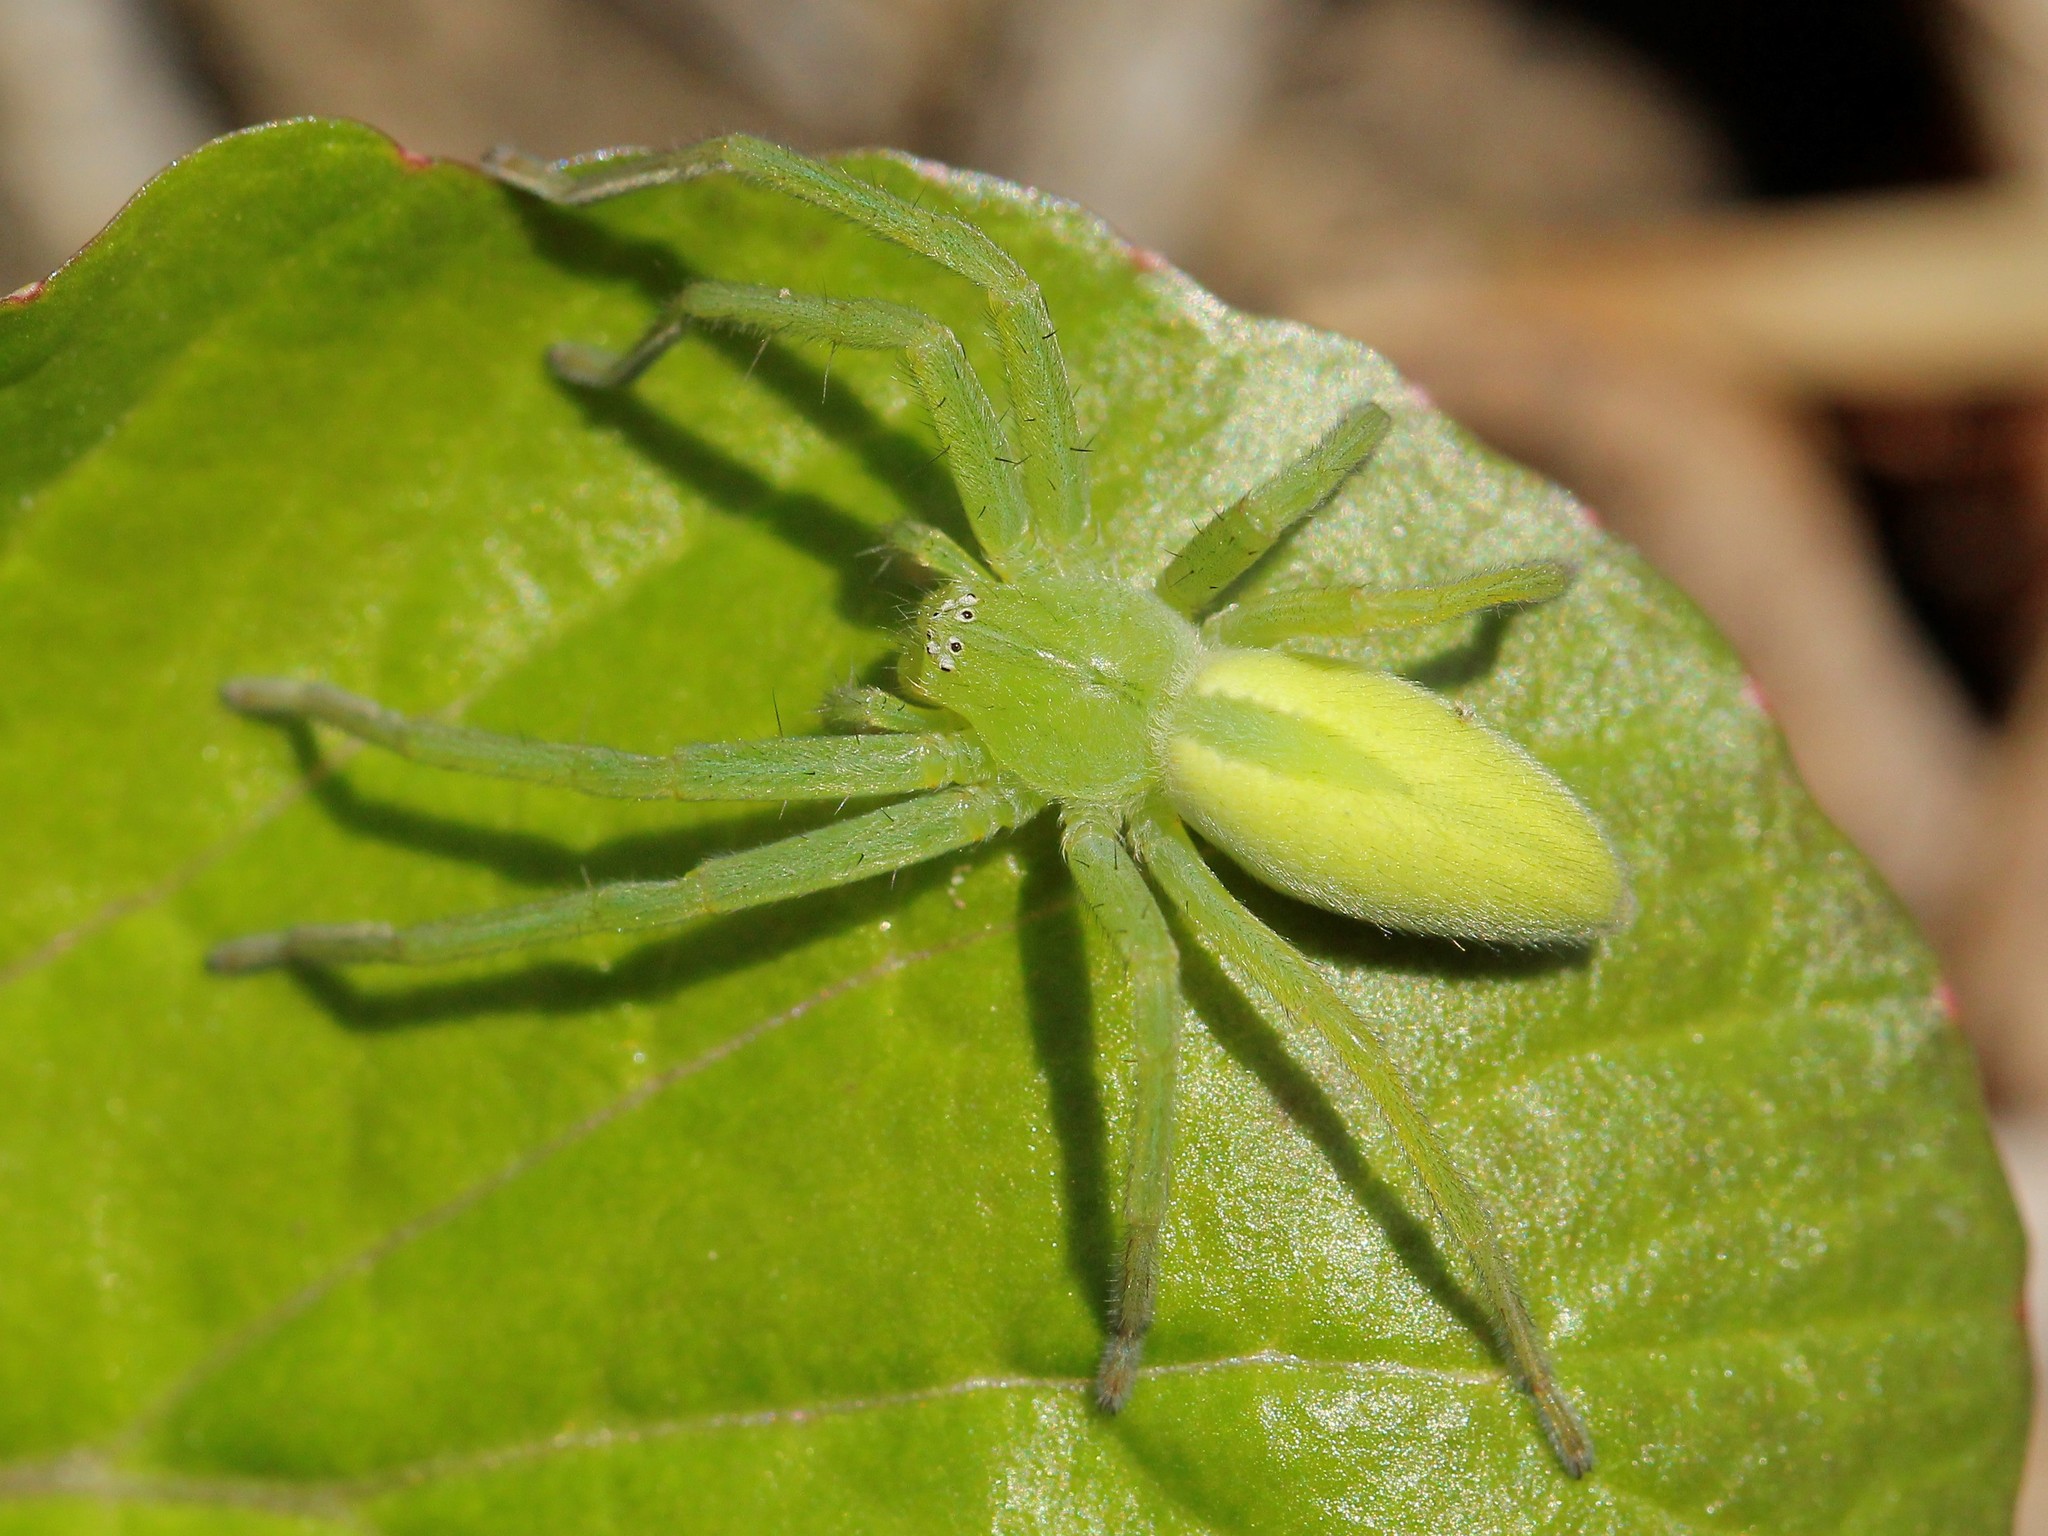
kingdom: Animalia
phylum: Arthropoda
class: Arachnida
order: Araneae
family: Sparassidae
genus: Micrommata
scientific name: Micrommata virescens
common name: Green spider
